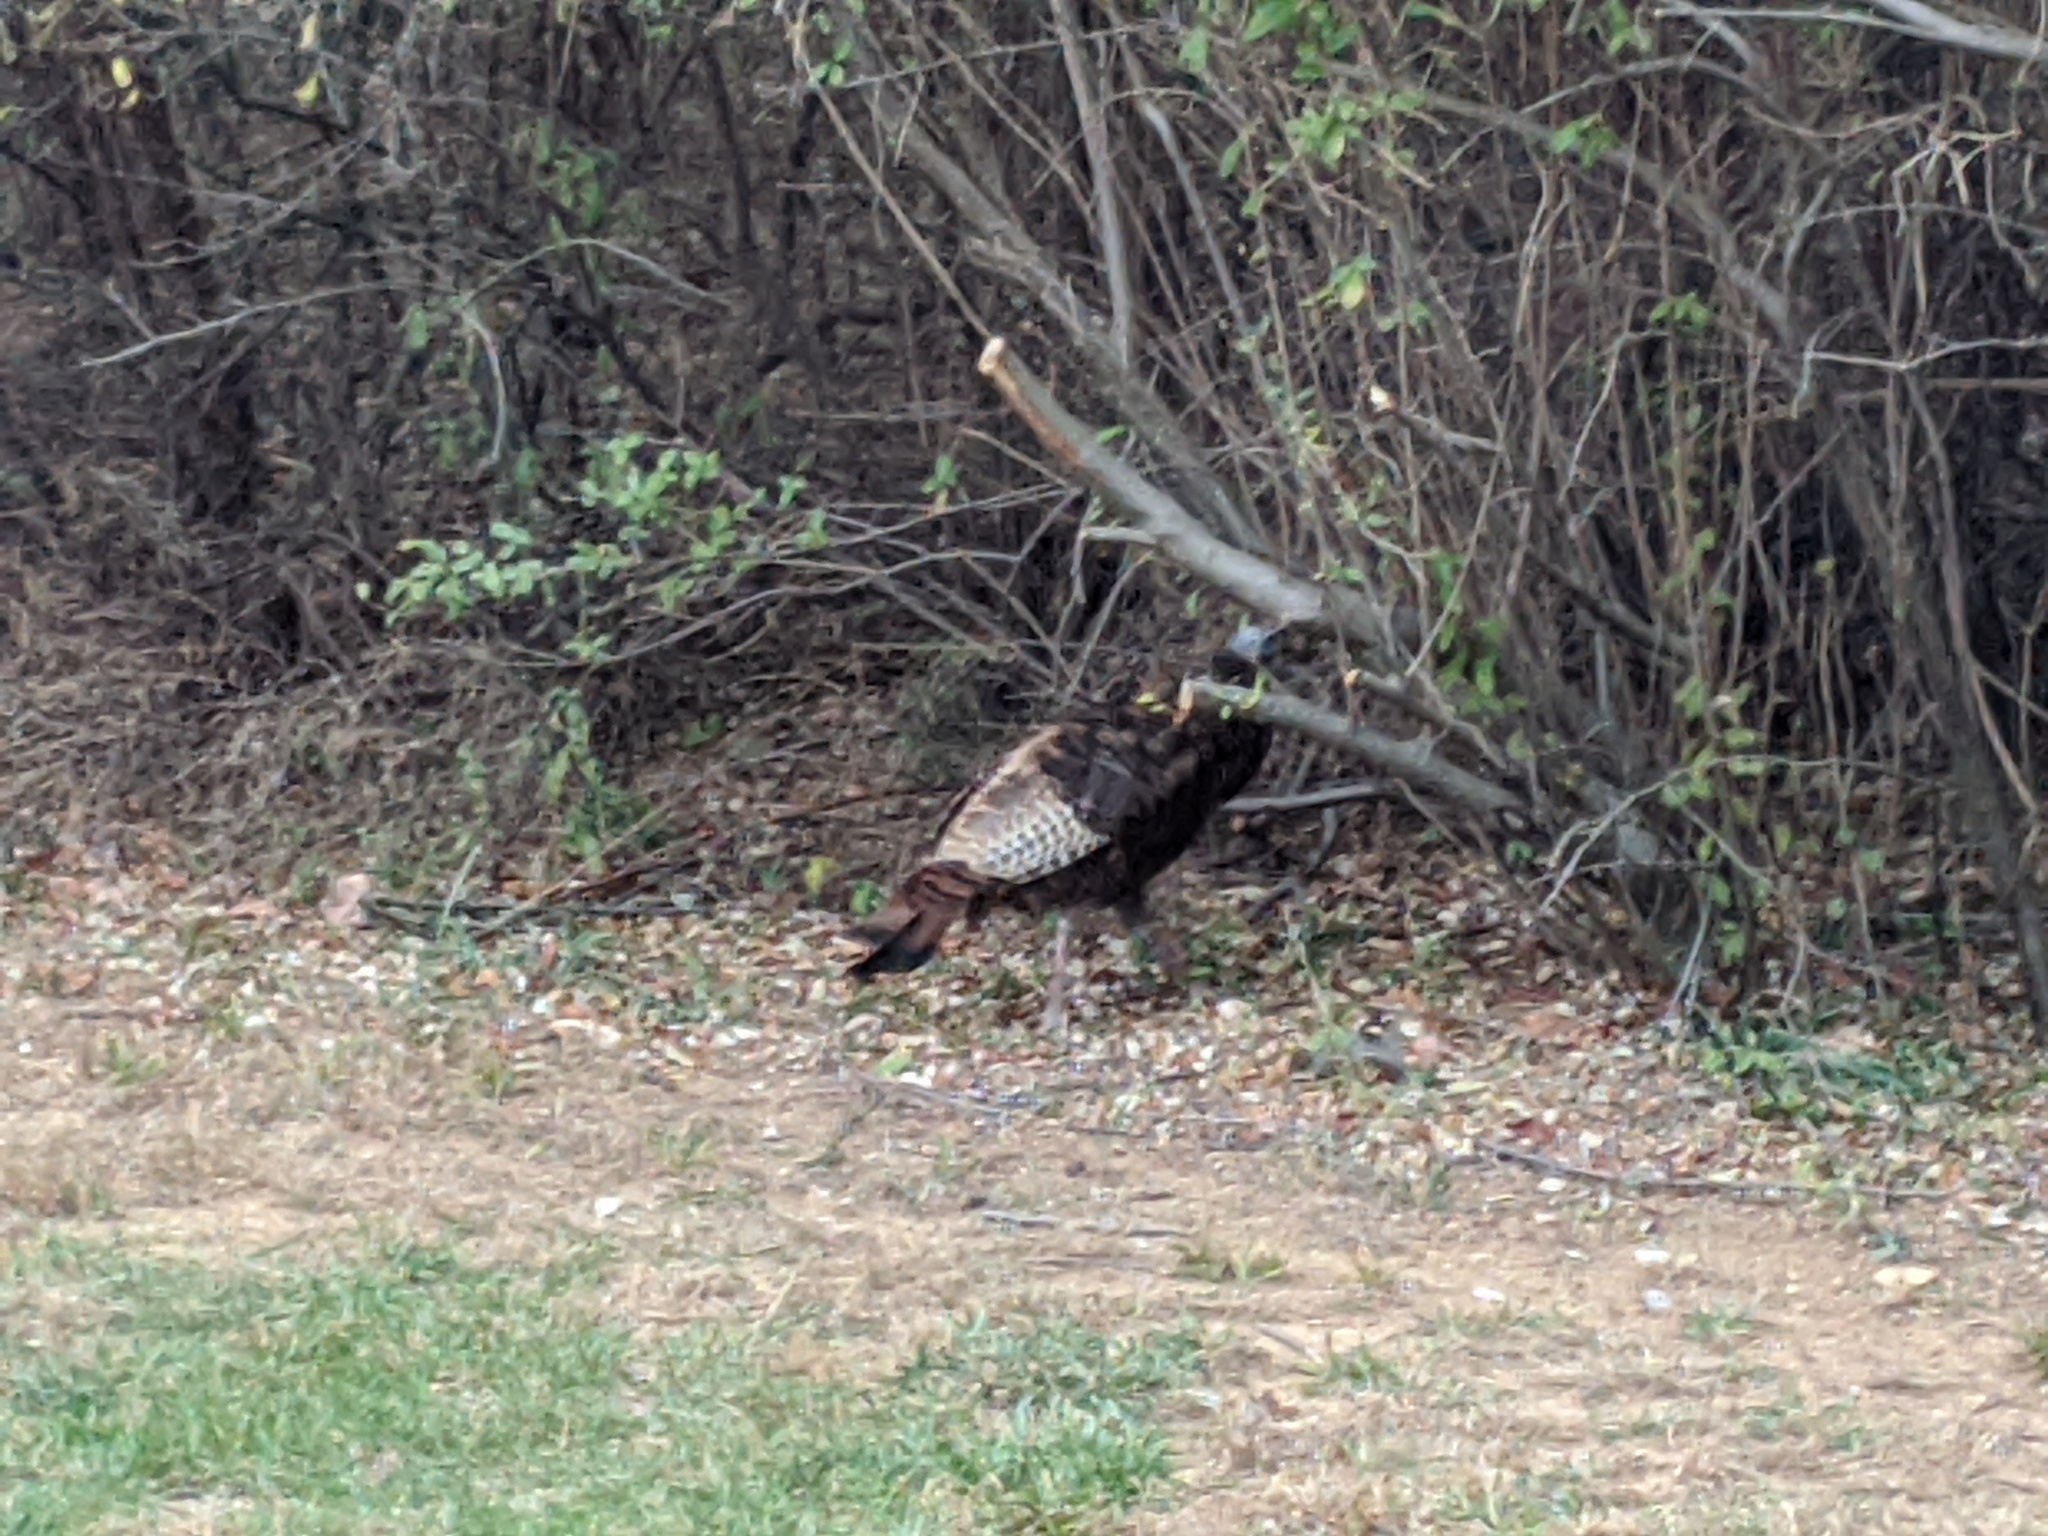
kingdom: Animalia
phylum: Chordata
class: Aves
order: Galliformes
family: Phasianidae
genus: Meleagris
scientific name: Meleagris gallopavo
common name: Wild turkey
